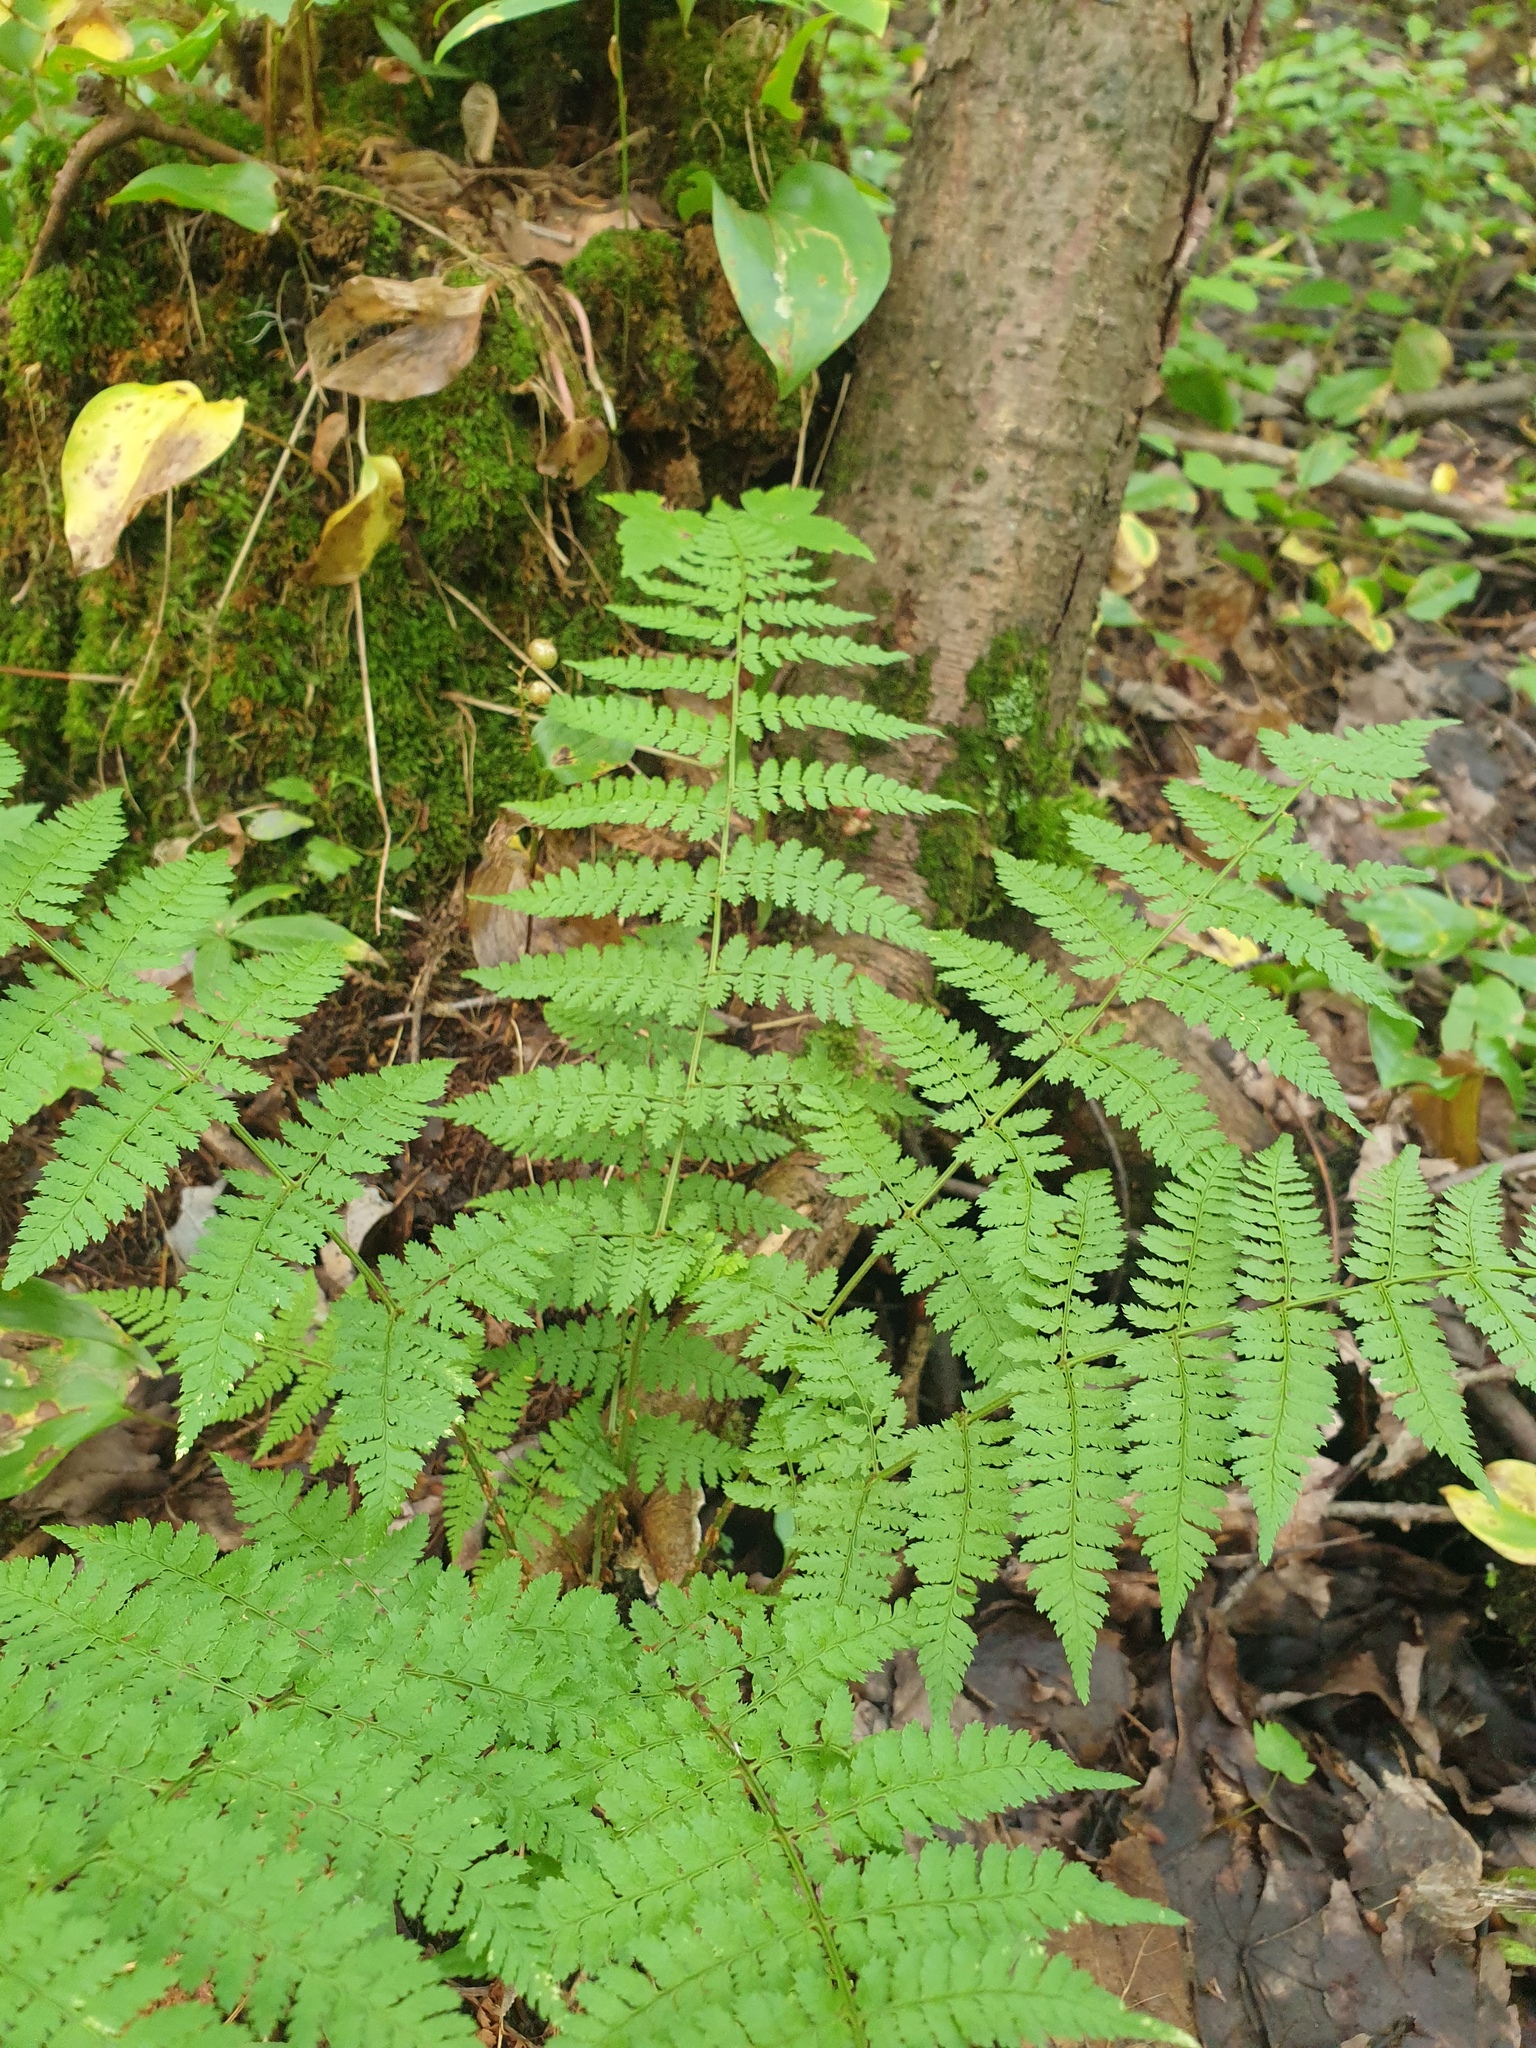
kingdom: Plantae
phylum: Tracheophyta
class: Polypodiopsida
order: Polypodiales
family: Dryopteridaceae
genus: Dryopteris
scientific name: Dryopteris intermedia
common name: Evergreen wood fern
